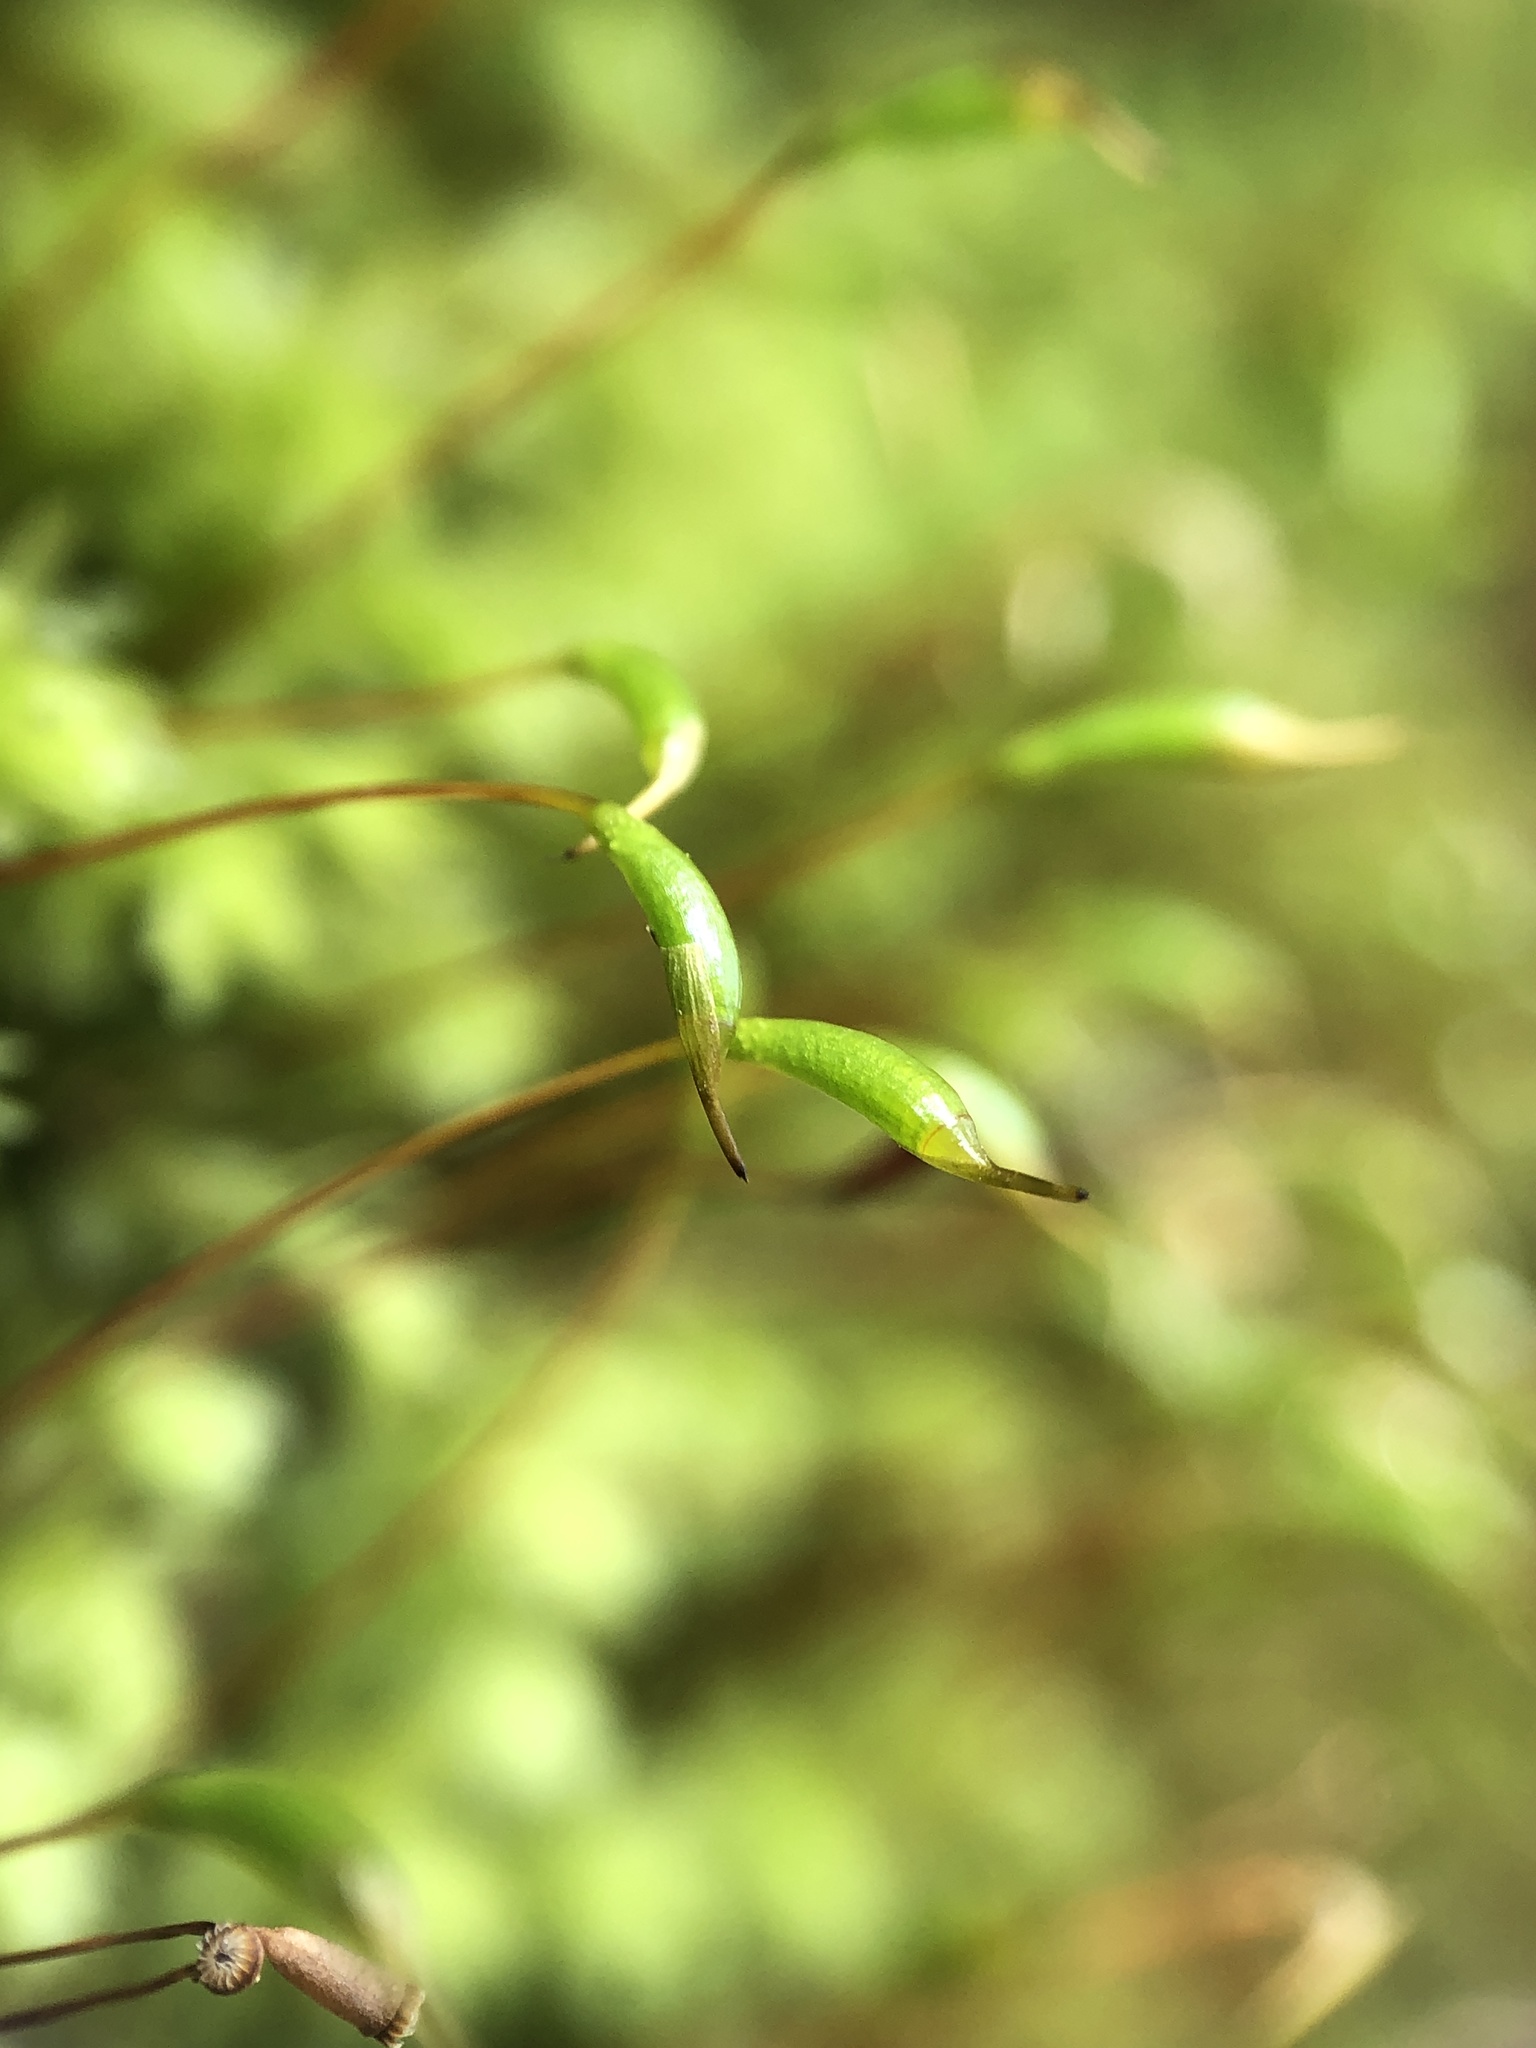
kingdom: Plantae
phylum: Bryophyta
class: Bryopsida
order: Aulacomniales
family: Aulacomniaceae
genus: Aulacomnium
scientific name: Aulacomnium heterostichum
